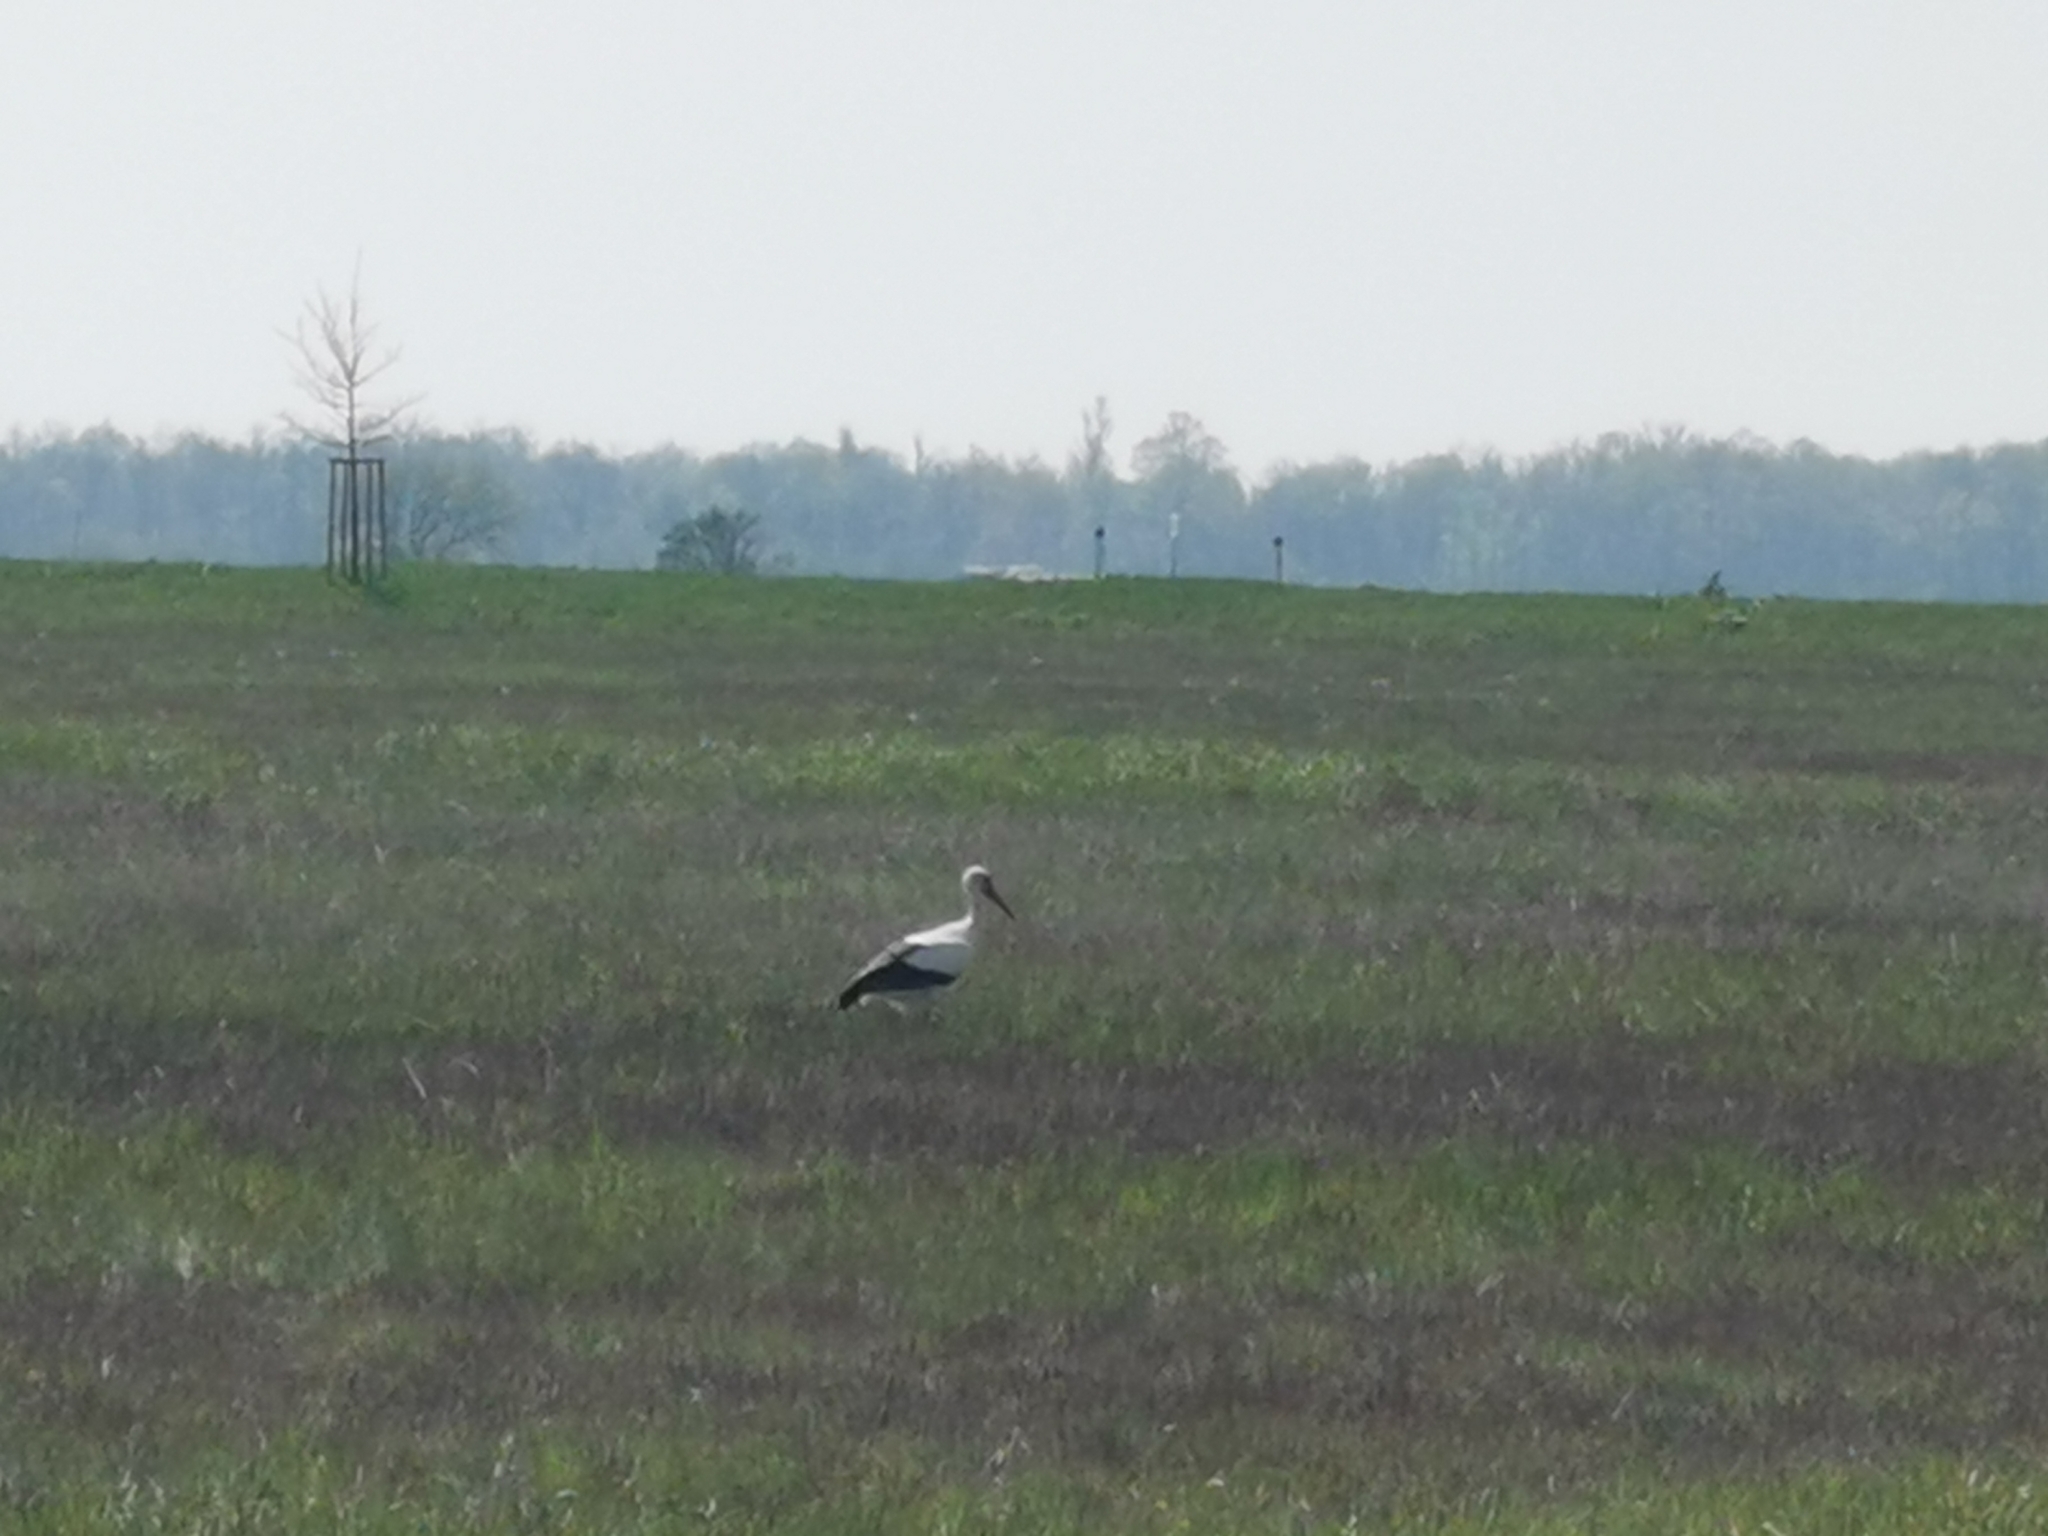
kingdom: Animalia
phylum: Chordata
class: Aves
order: Ciconiiformes
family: Ciconiidae
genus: Ciconia
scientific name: Ciconia ciconia
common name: White stork
